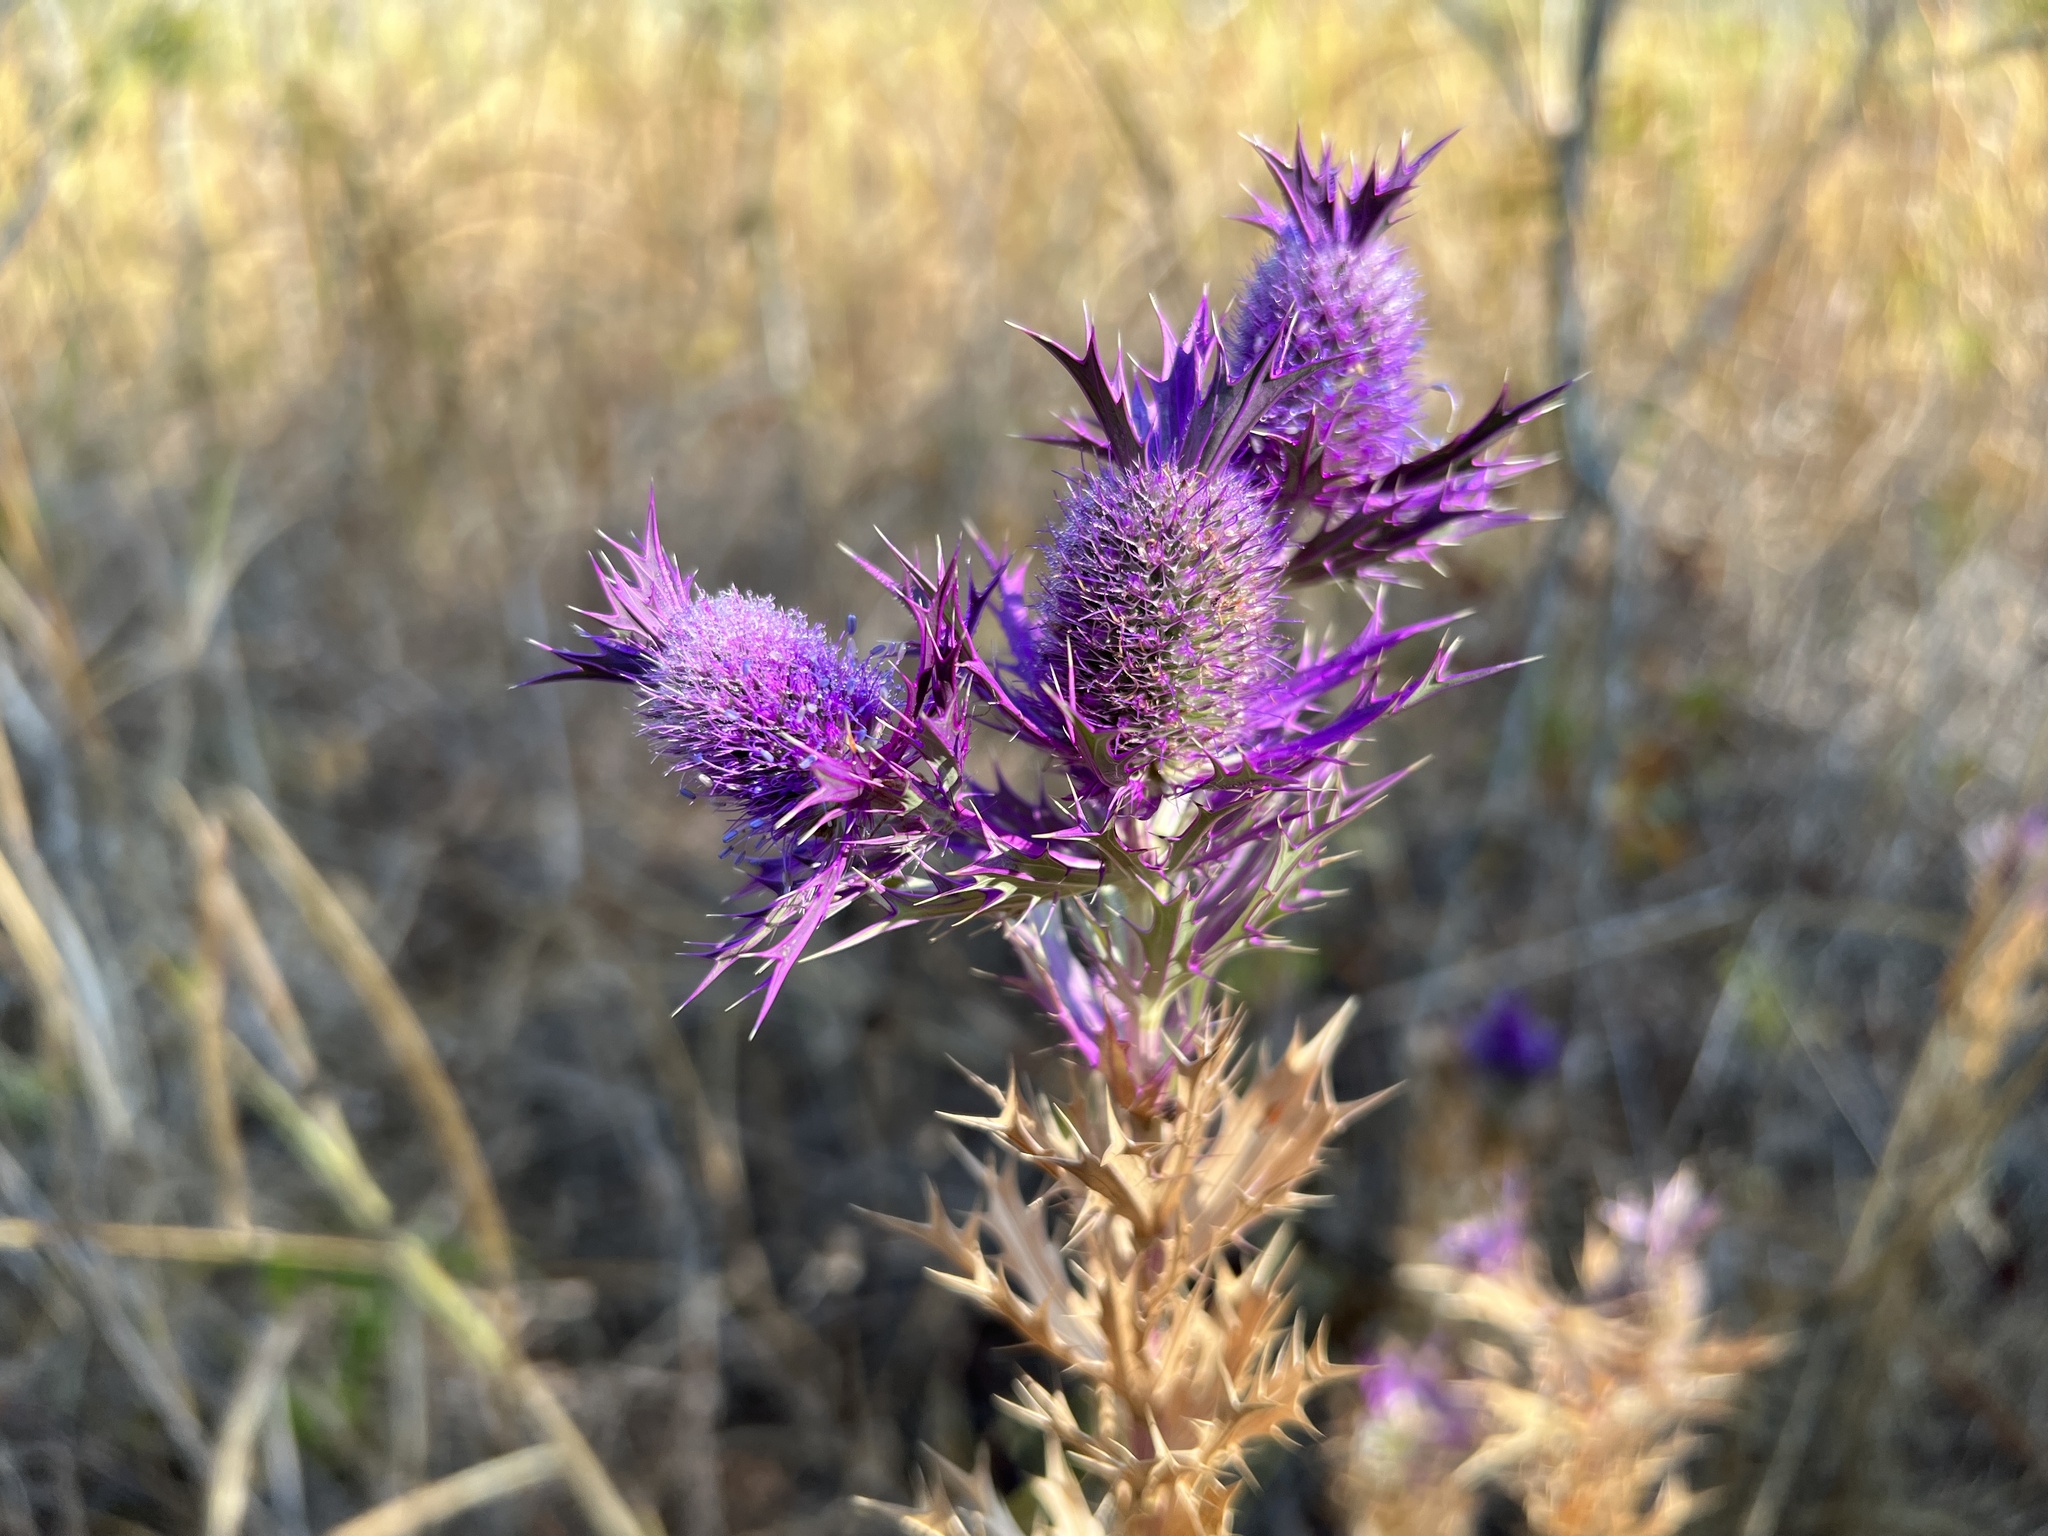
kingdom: Plantae
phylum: Tracheophyta
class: Magnoliopsida
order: Apiales
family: Apiaceae
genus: Eryngium
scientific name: Eryngium leavenworthii
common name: Leavenworth's eryngo
